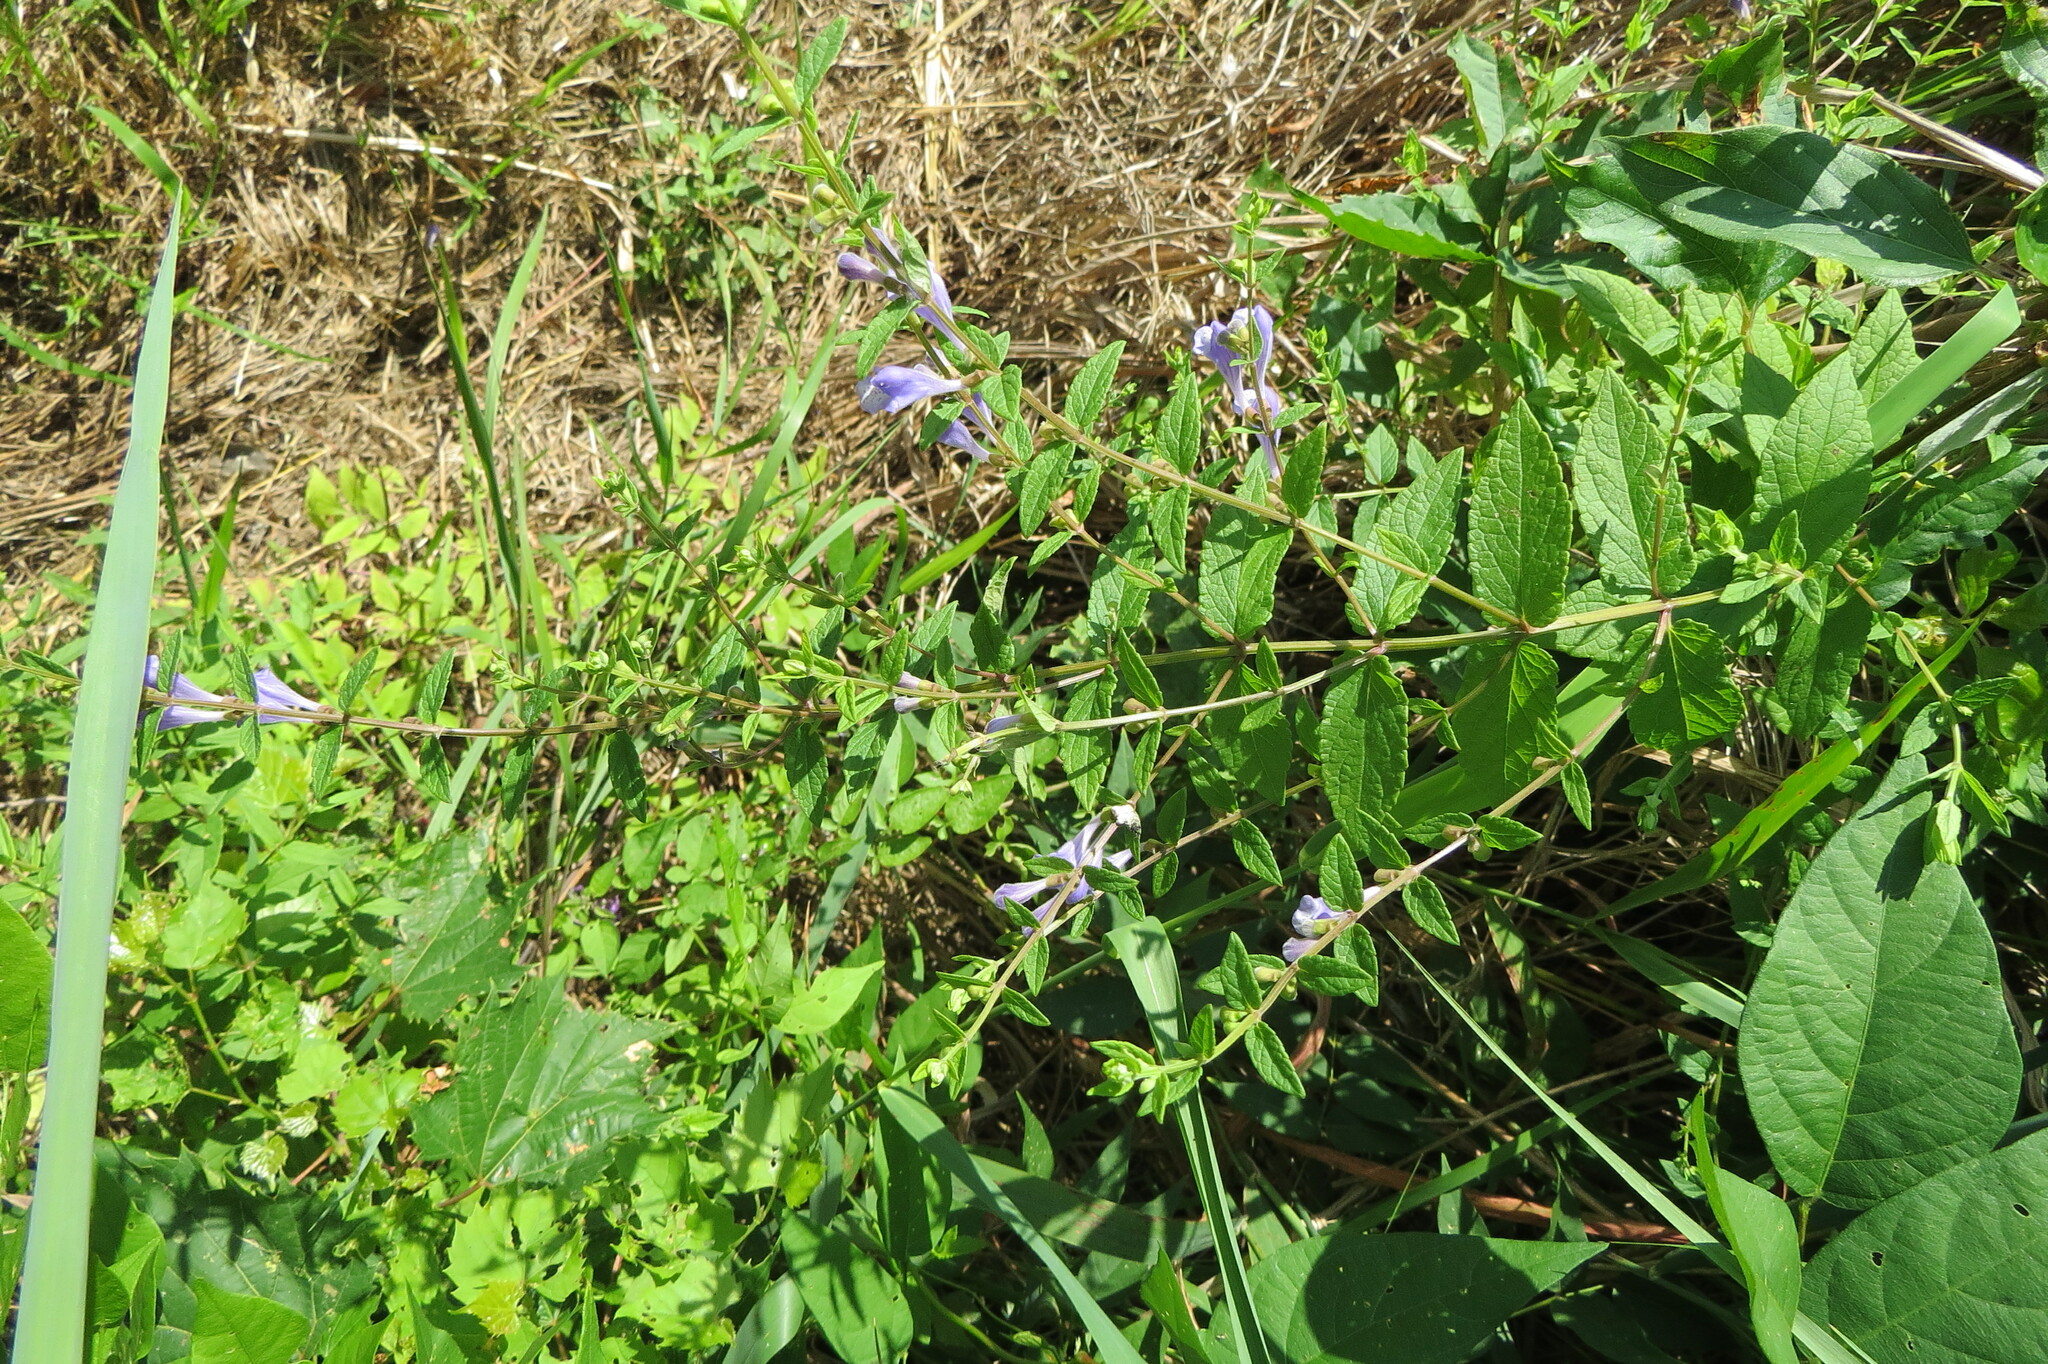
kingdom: Plantae
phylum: Tracheophyta
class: Magnoliopsida
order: Lamiales
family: Lamiaceae
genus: Scutellaria
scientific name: Scutellaria galericulata
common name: Skullcap
